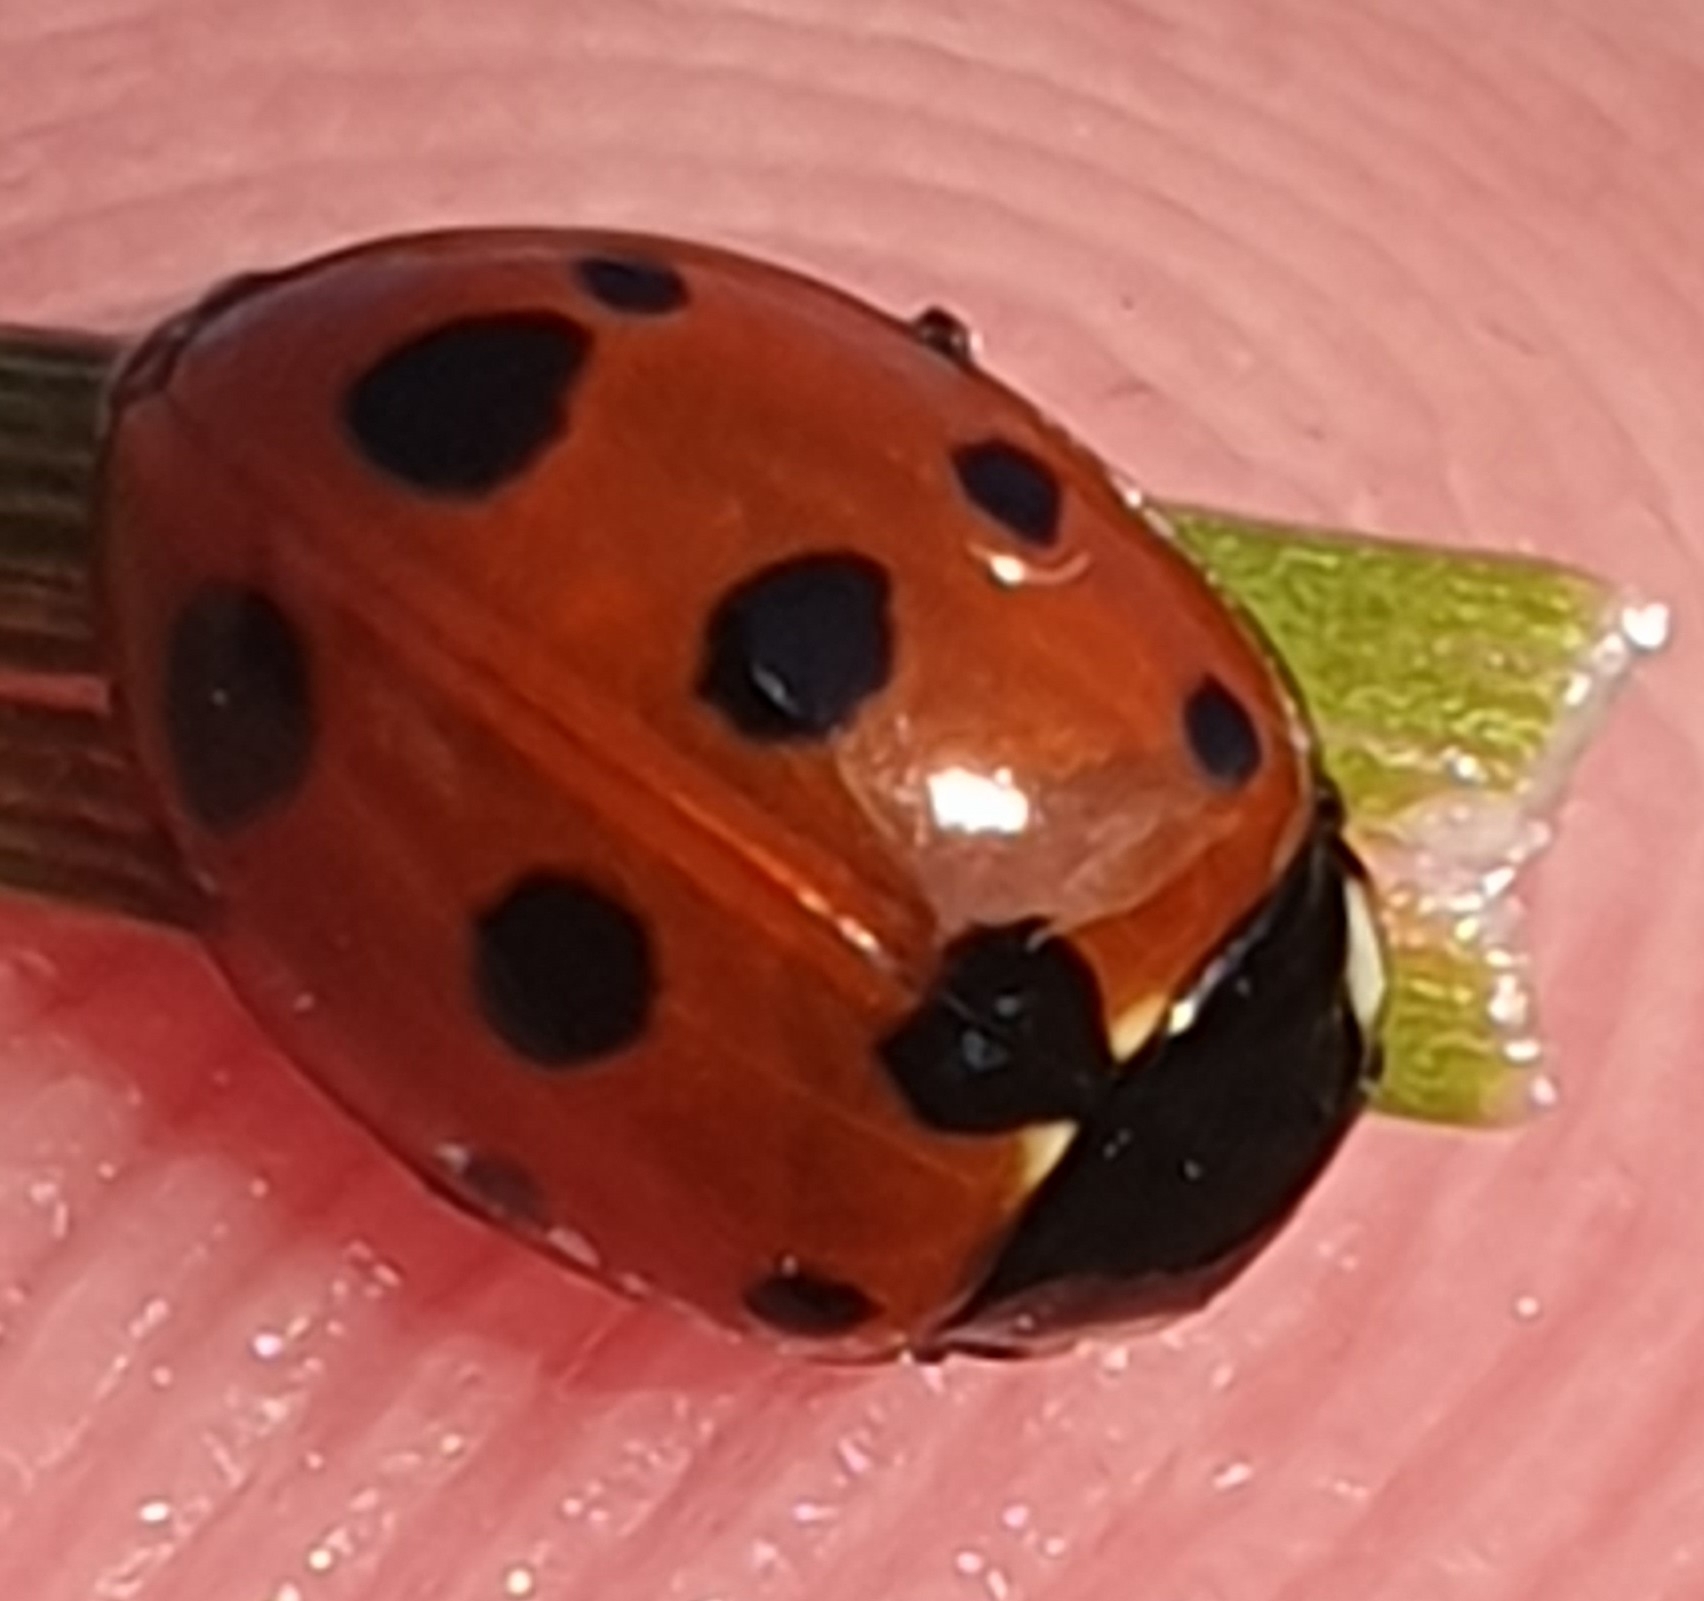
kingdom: Animalia
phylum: Arthropoda
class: Insecta
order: Coleoptera
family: Coccinellidae
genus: Coccinella
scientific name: Coccinella undecimpunctata
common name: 11-spot ladybird
